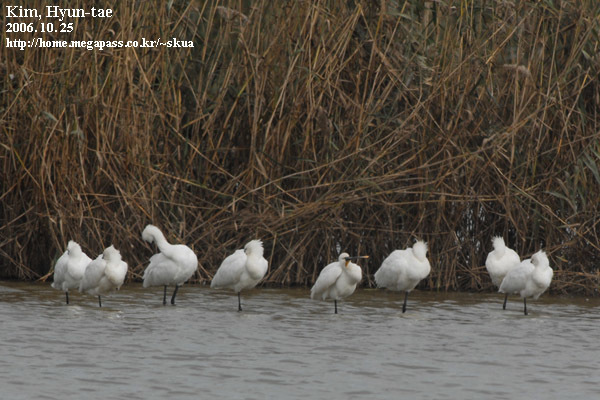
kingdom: Animalia
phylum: Chordata
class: Aves
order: Pelecaniformes
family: Threskiornithidae
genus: Platalea
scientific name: Platalea leucorodia
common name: Eurasian spoonbill
